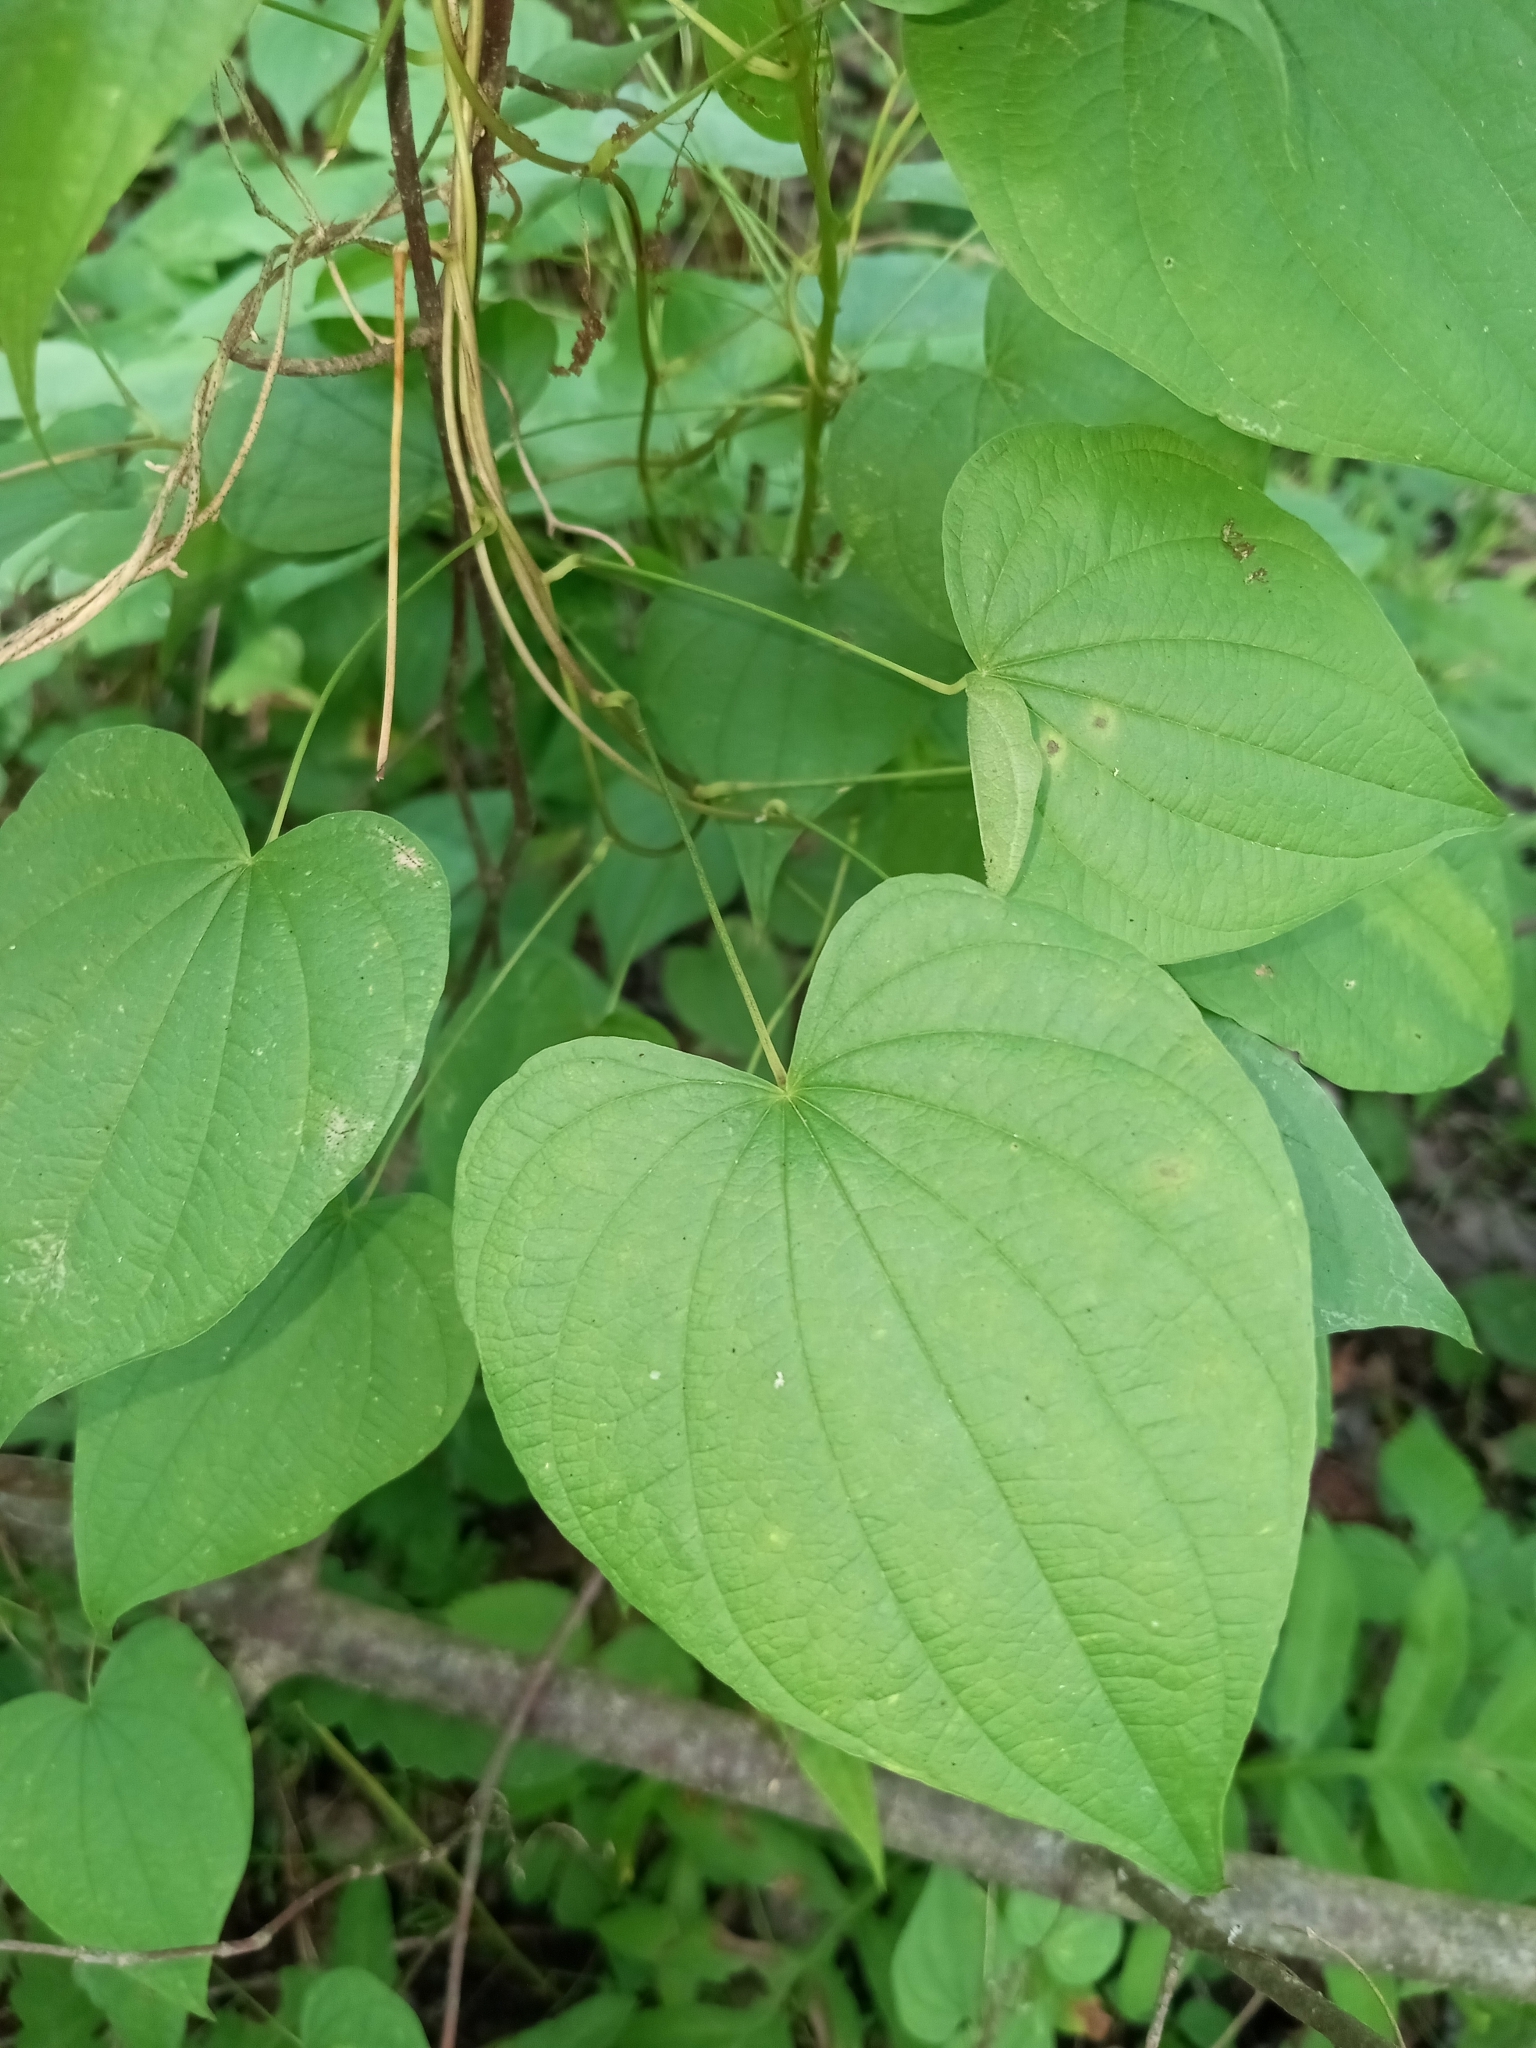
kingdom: Plantae
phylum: Tracheophyta
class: Liliopsida
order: Dioscoreales
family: Dioscoreaceae
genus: Dioscorea
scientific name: Dioscorea villosa
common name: Wild yam
